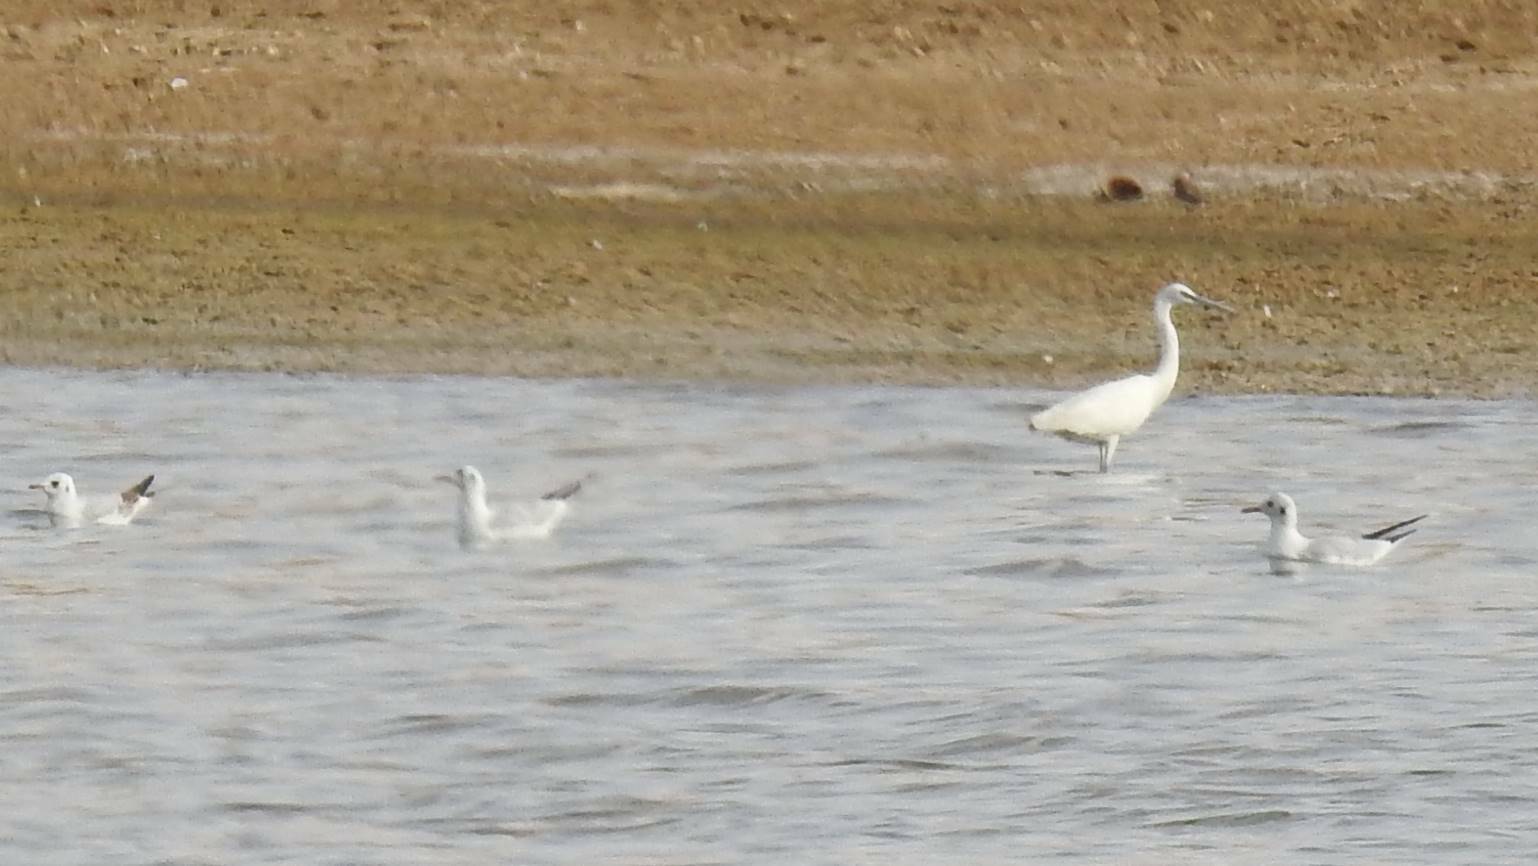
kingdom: Animalia
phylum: Chordata
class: Aves
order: Pelecaniformes
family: Ardeidae
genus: Egretta
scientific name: Egretta garzetta
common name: Little egret
